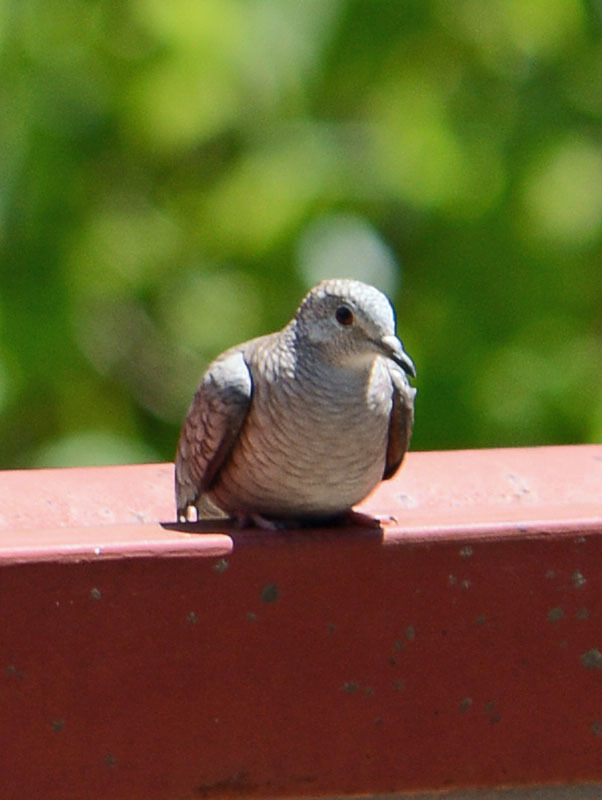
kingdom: Animalia
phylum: Chordata
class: Aves
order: Columbiformes
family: Columbidae
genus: Columbina
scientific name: Columbina inca
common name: Inca dove
